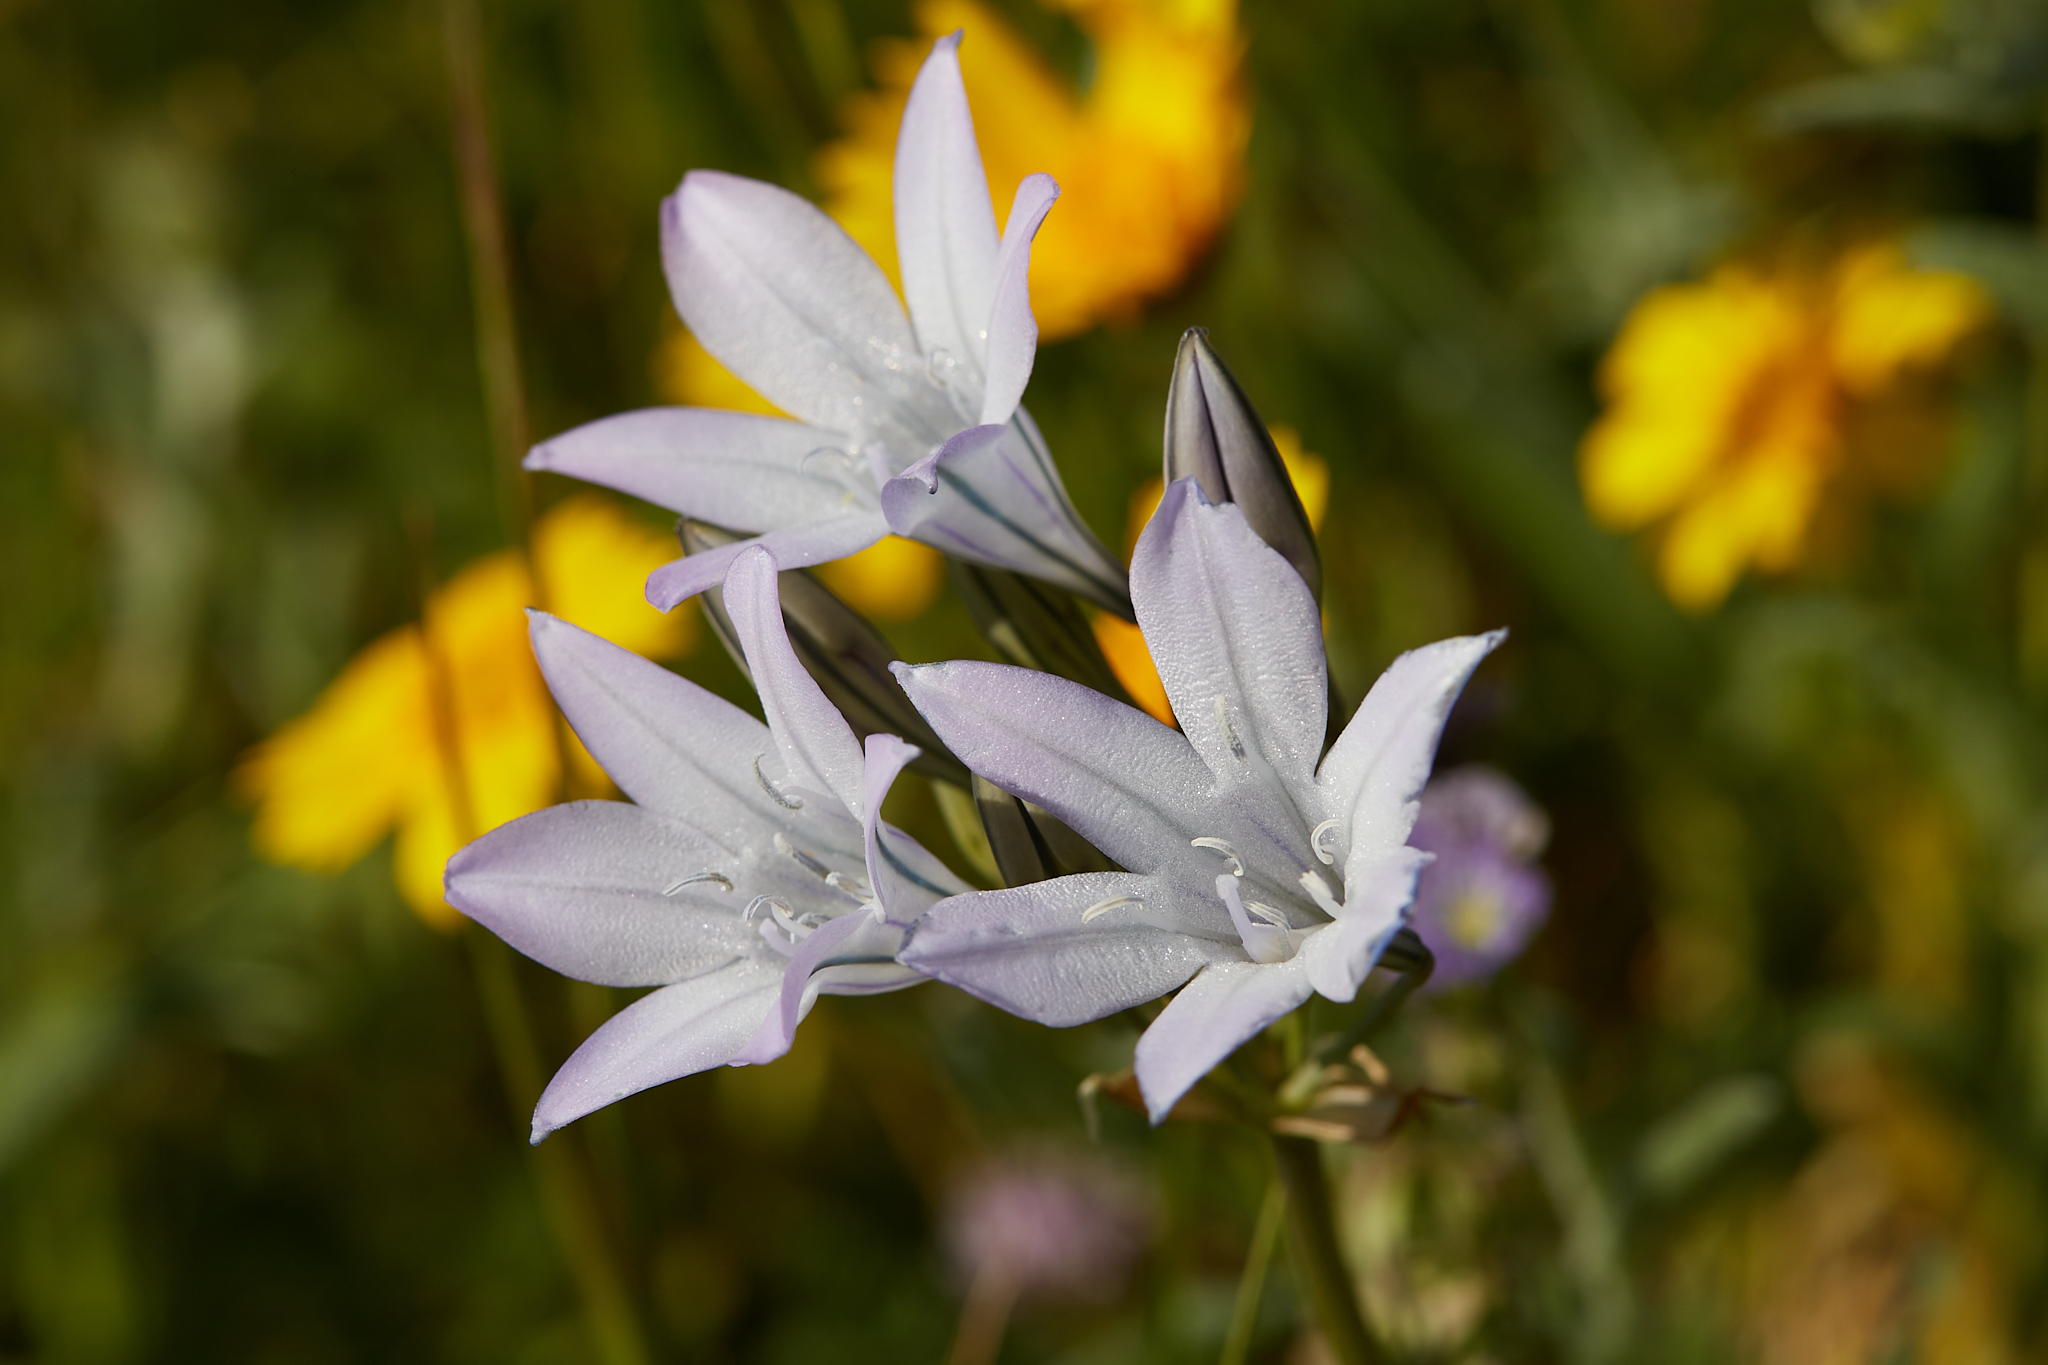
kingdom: Plantae
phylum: Tracheophyta
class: Liliopsida
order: Asparagales
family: Asparagaceae
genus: Triteleia
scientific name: Triteleia laxa
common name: Triplet-lily
